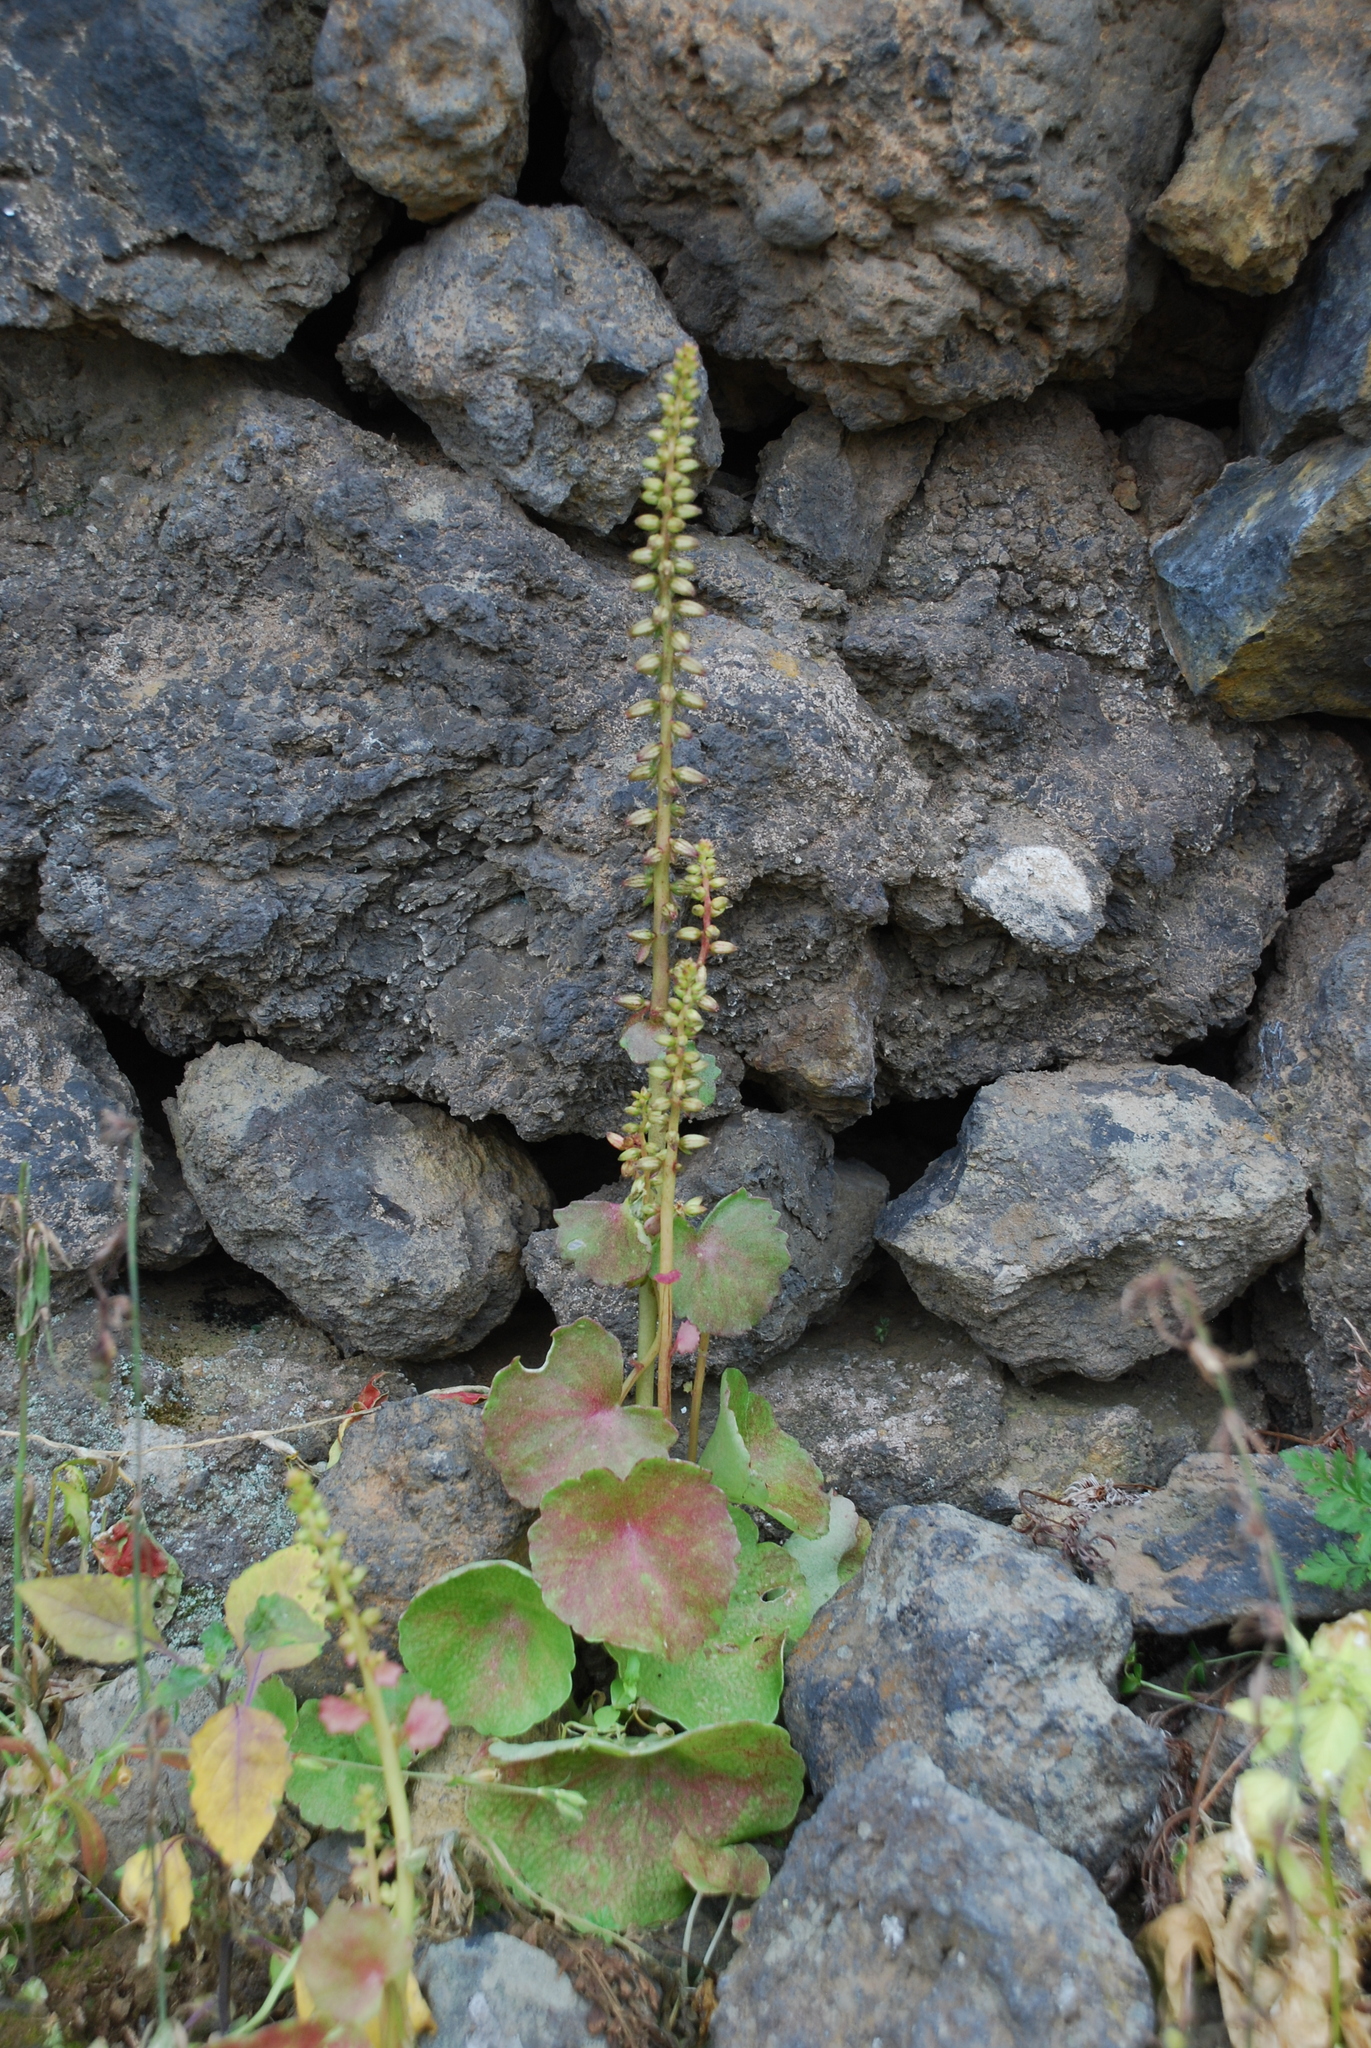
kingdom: Plantae
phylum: Tracheophyta
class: Magnoliopsida
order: Saxifragales
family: Crassulaceae
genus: Umbilicus
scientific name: Umbilicus horizontalis
